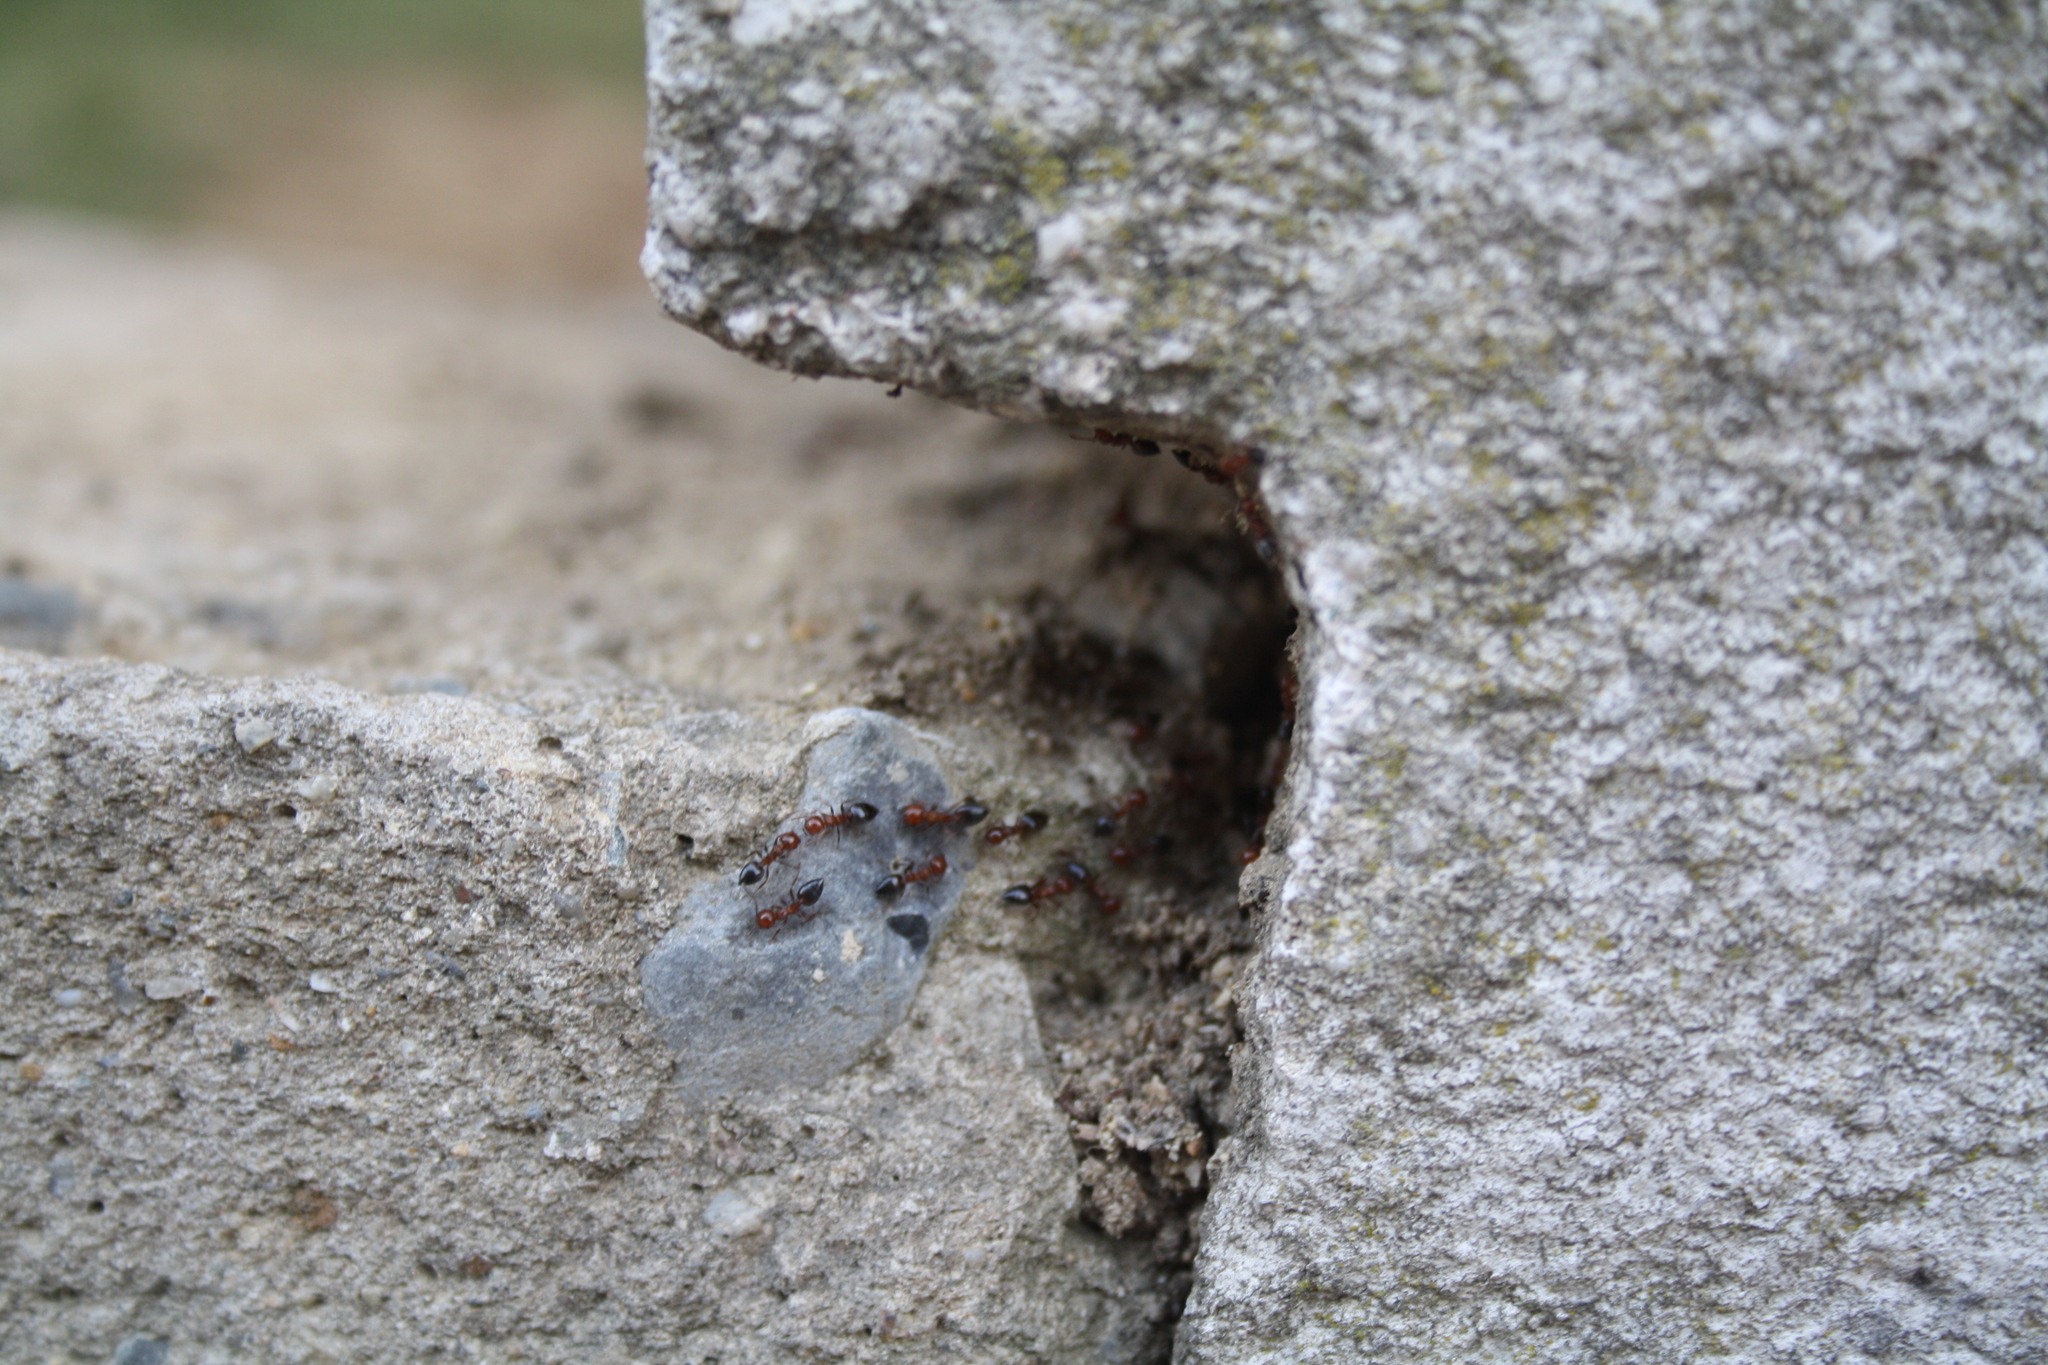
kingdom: Animalia
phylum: Arthropoda
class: Insecta
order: Hymenoptera
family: Formicidae
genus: Crematogaster
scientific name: Crematogaster schmidti
